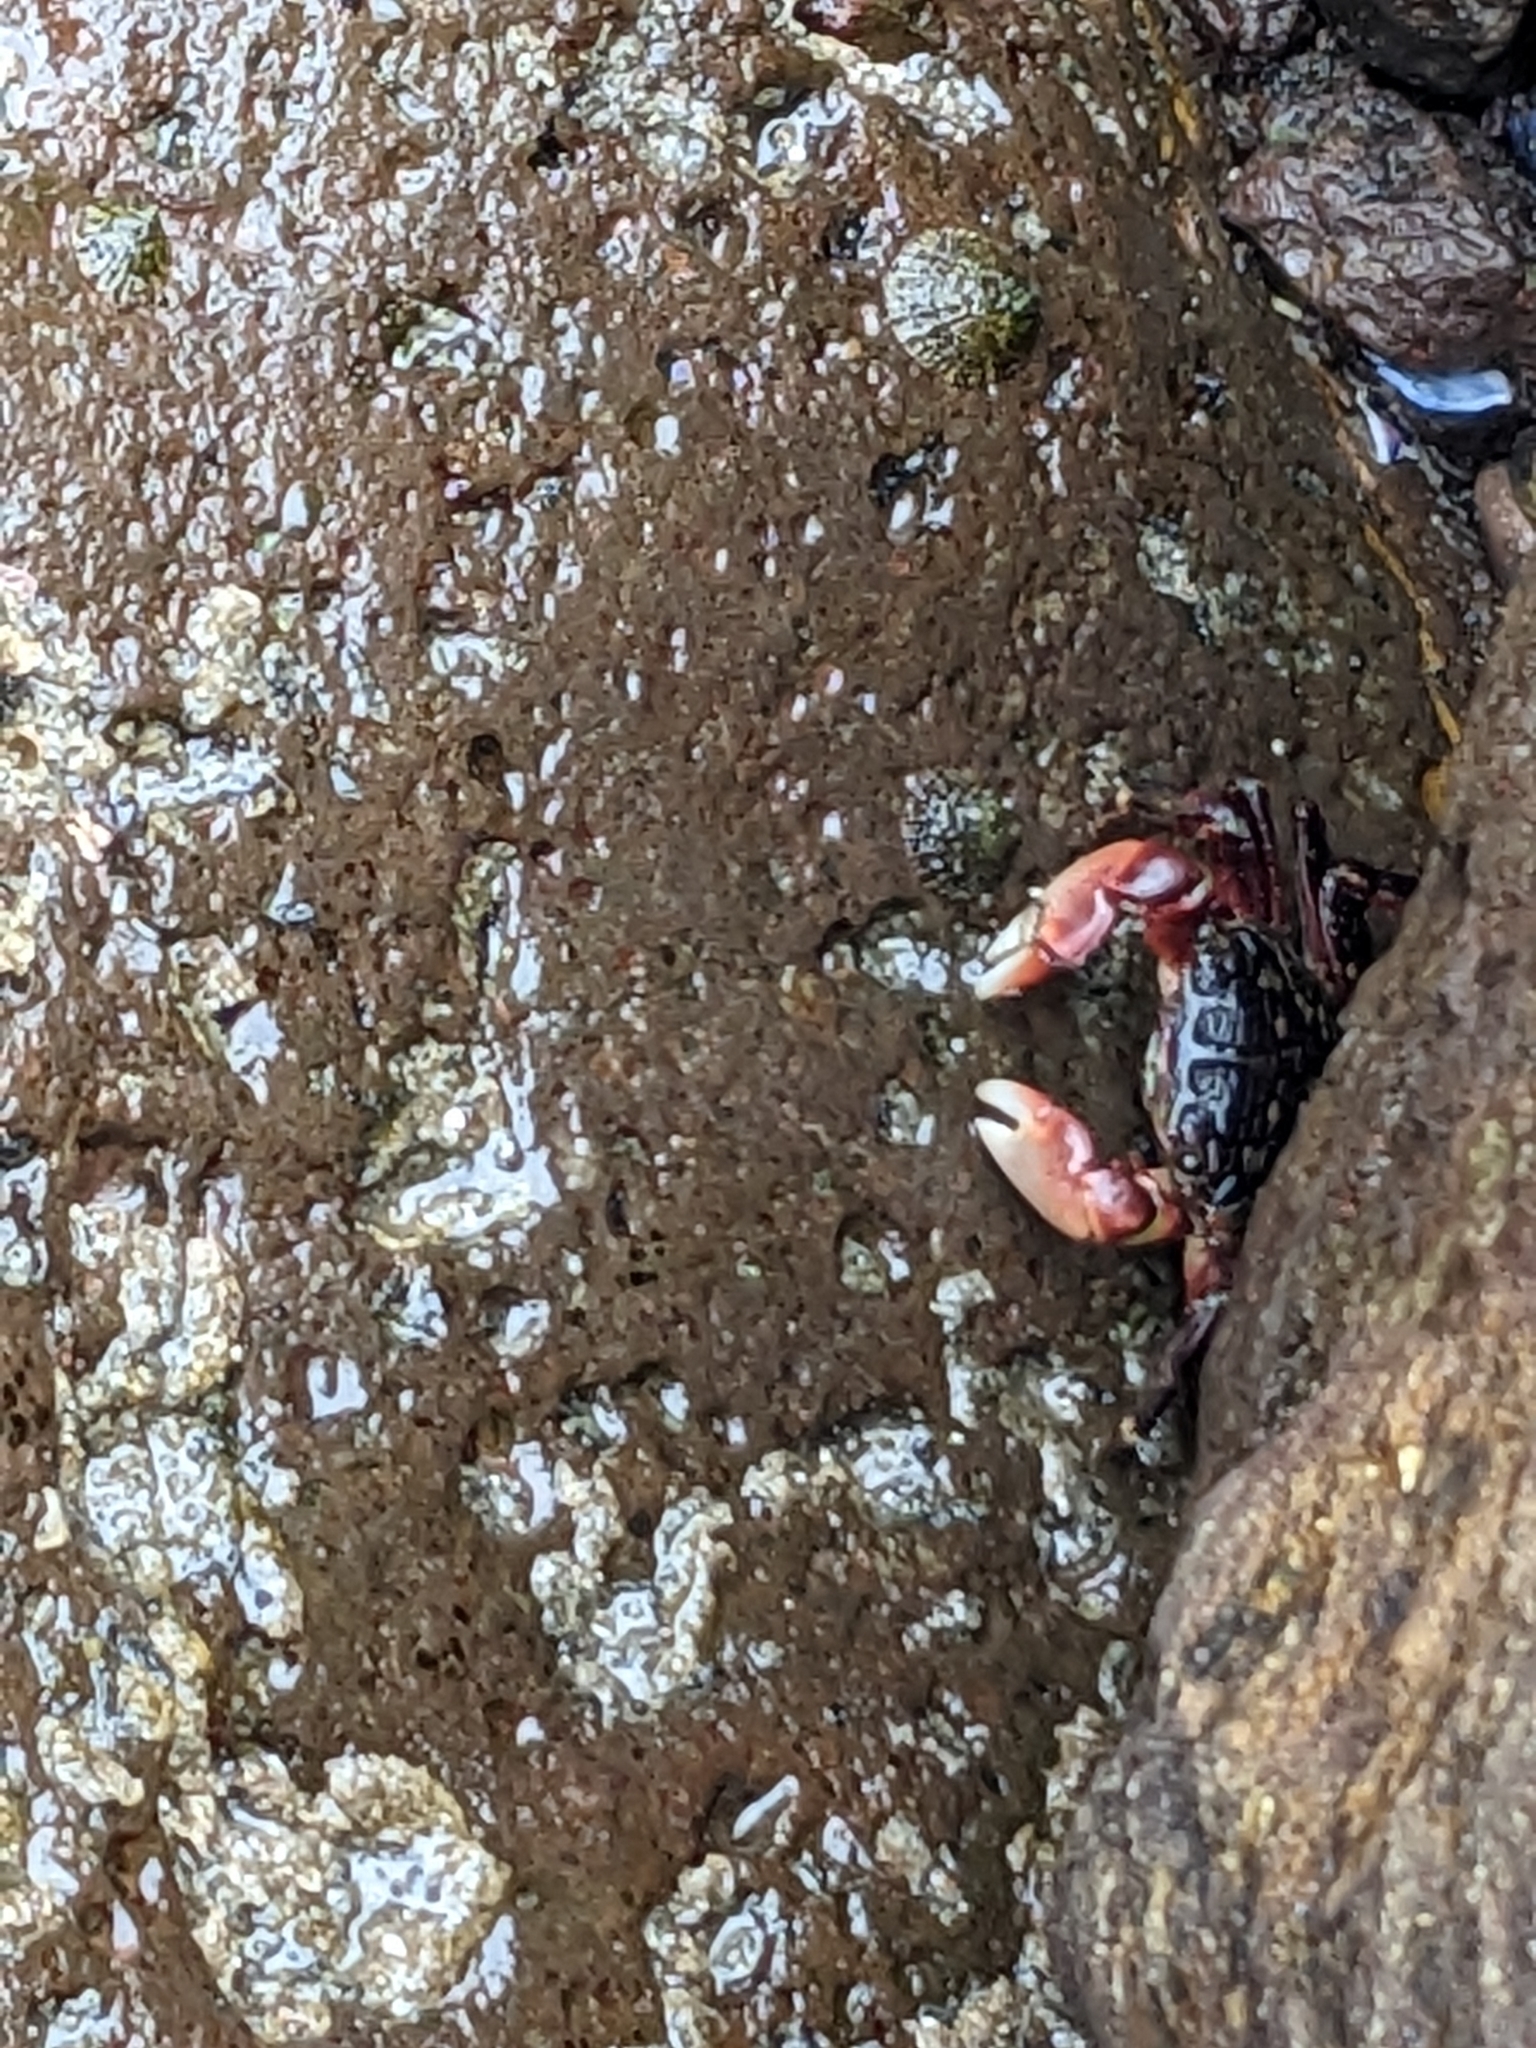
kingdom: Animalia
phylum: Arthropoda
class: Malacostraca
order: Decapoda
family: Grapsidae
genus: Pachygrapsus
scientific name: Pachygrapsus crassipes
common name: Striped shore crab
